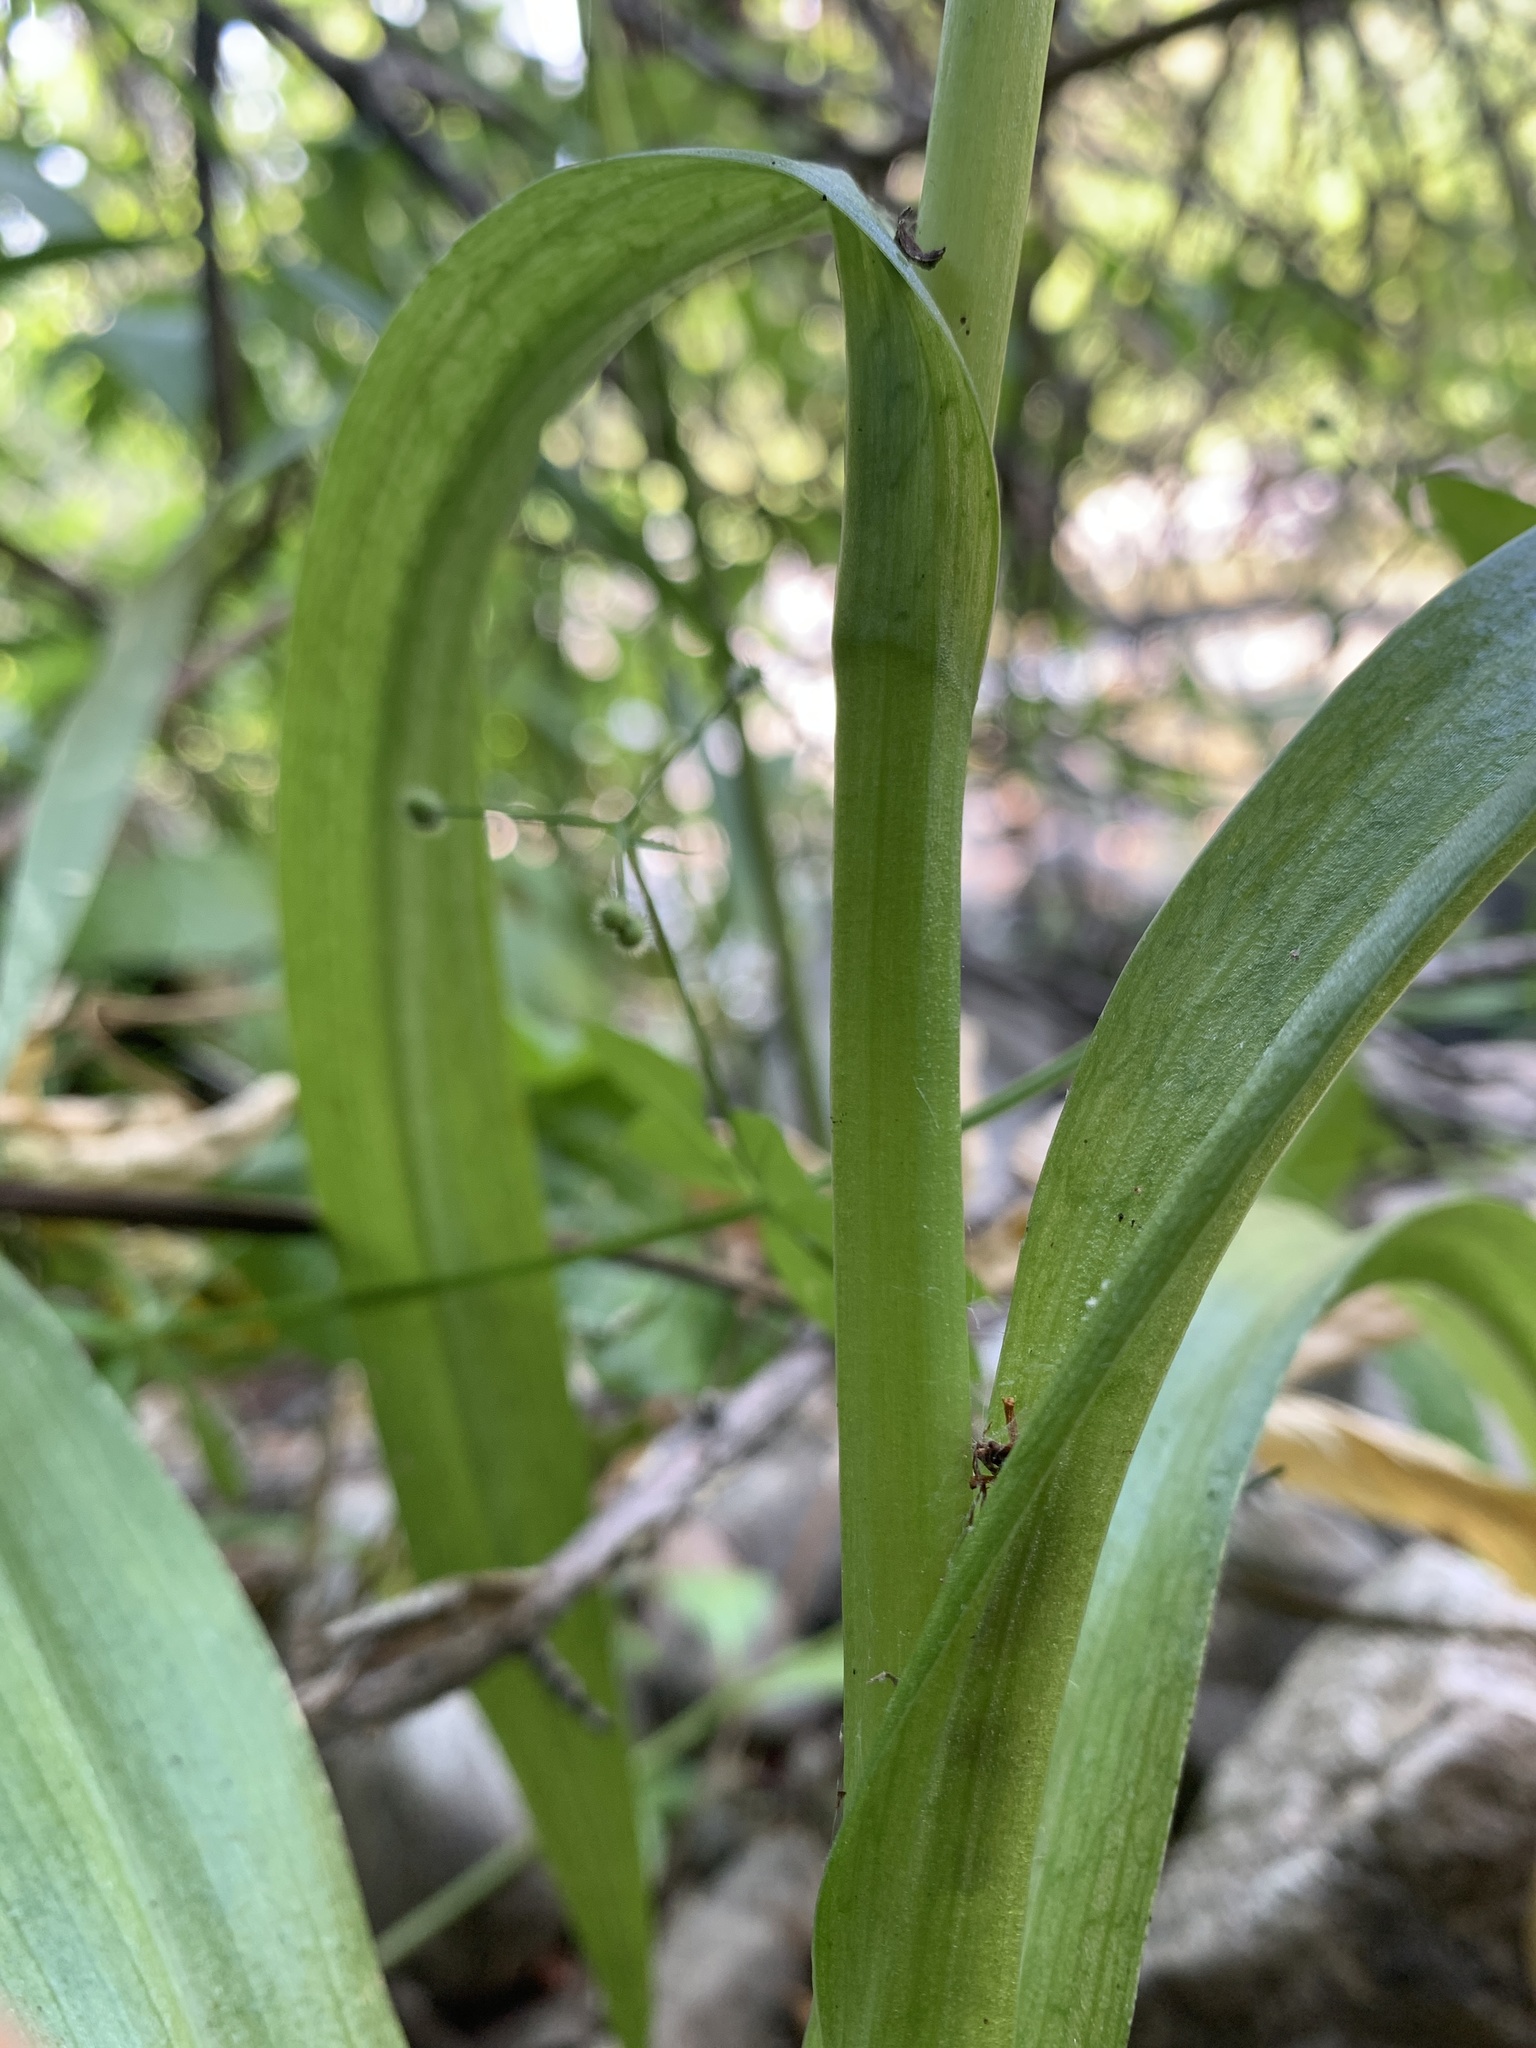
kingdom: Plantae
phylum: Tracheophyta
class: Liliopsida
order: Asparagales
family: Orchidaceae
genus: Platanthera
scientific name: Platanthera dilatata
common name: Bog candles
